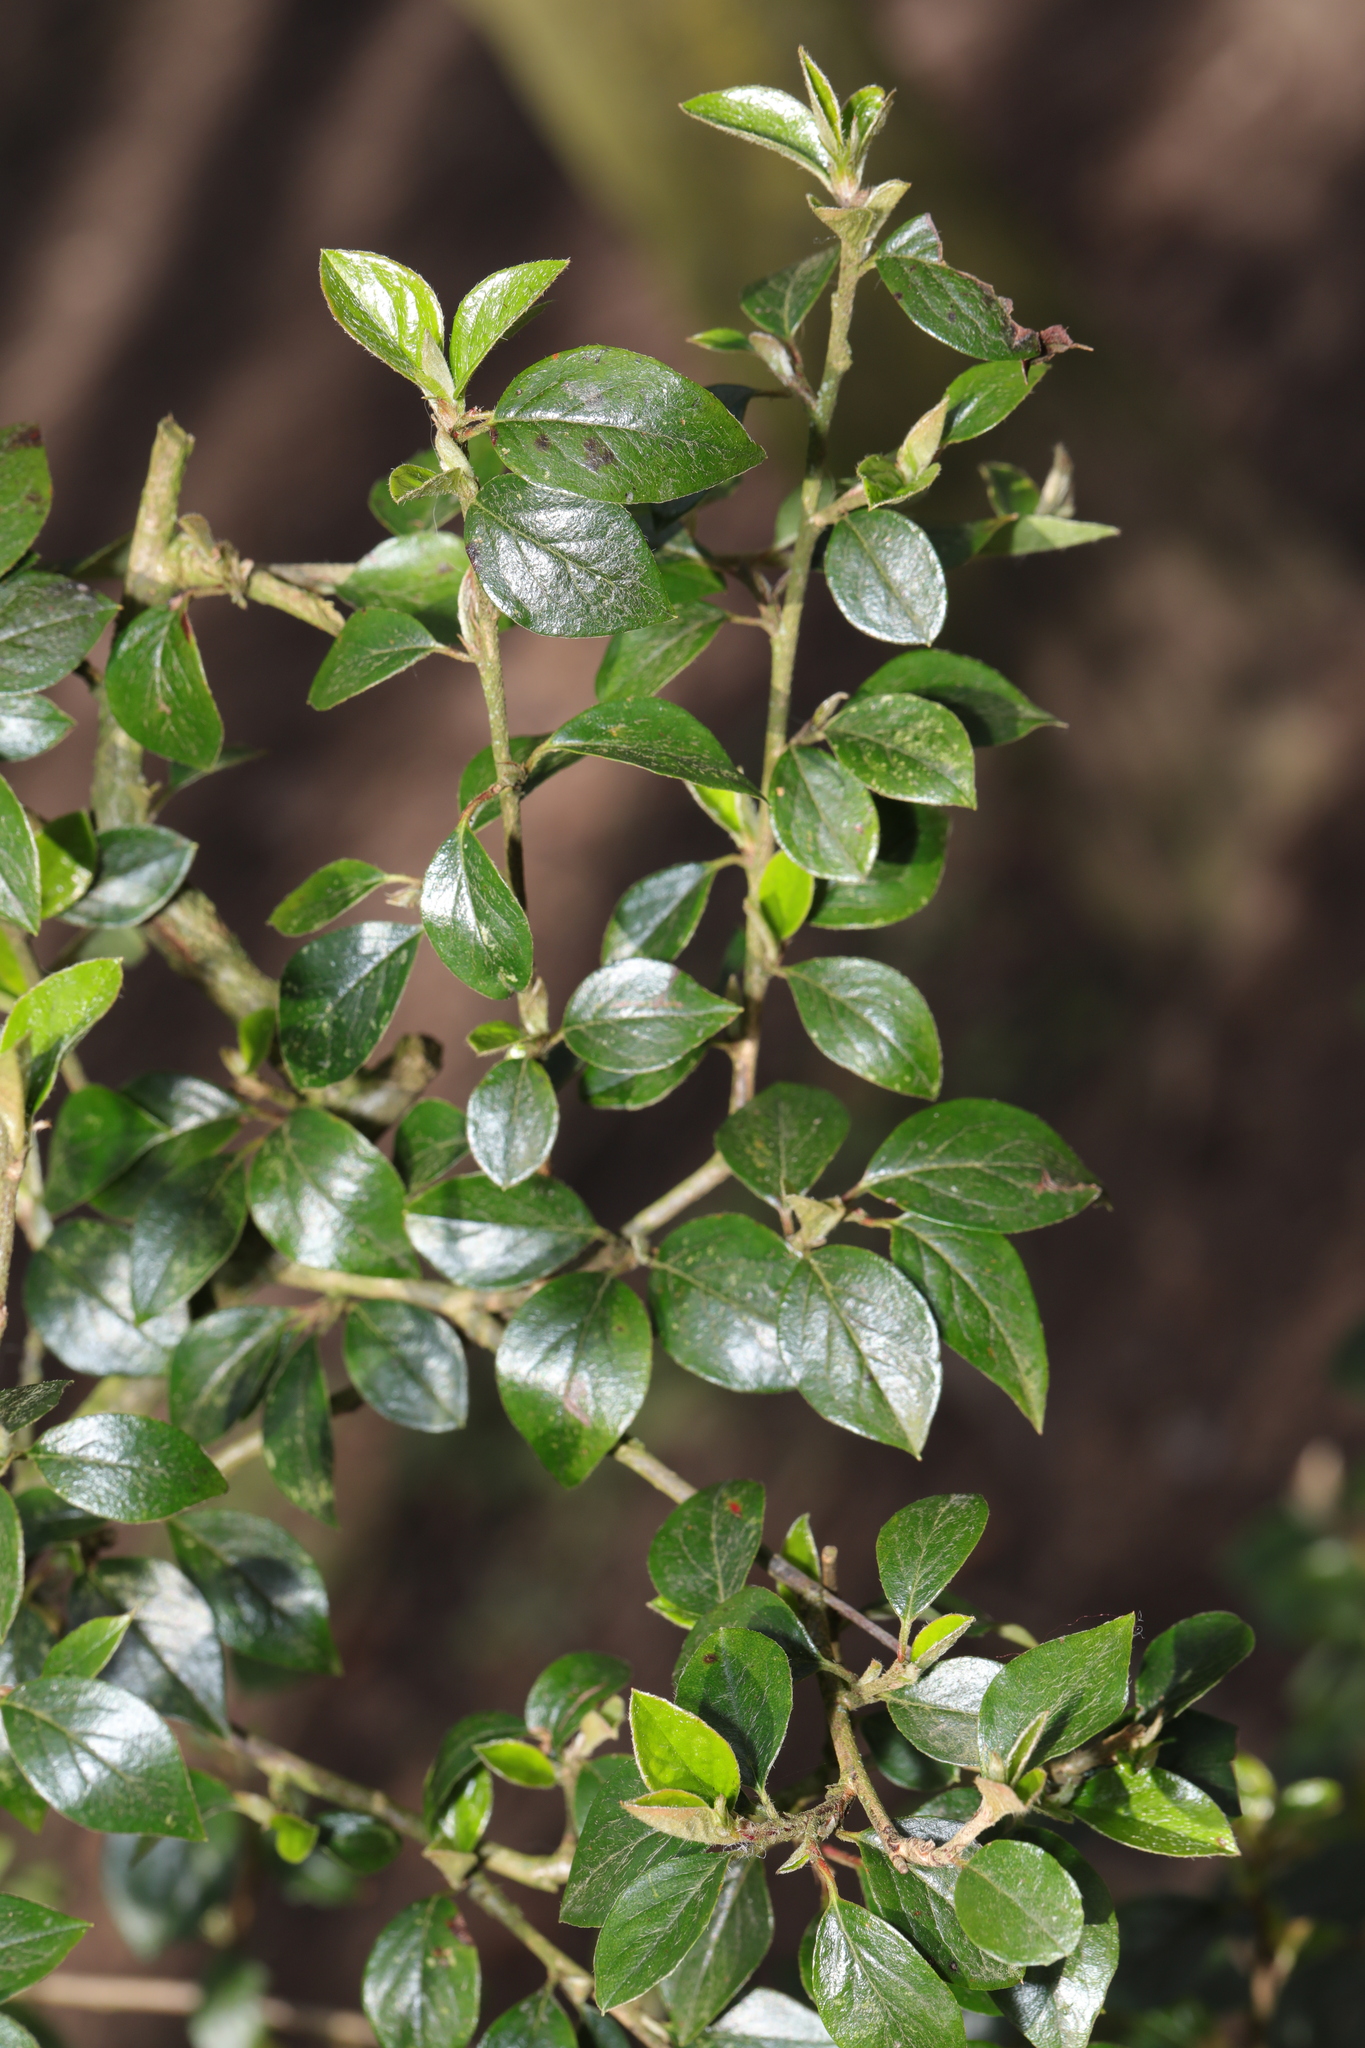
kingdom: Plantae
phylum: Tracheophyta
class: Magnoliopsida
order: Rosales
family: Rosaceae
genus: Cotoneaster
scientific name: Cotoneaster simonsii
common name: Himalayan cotoneaster
